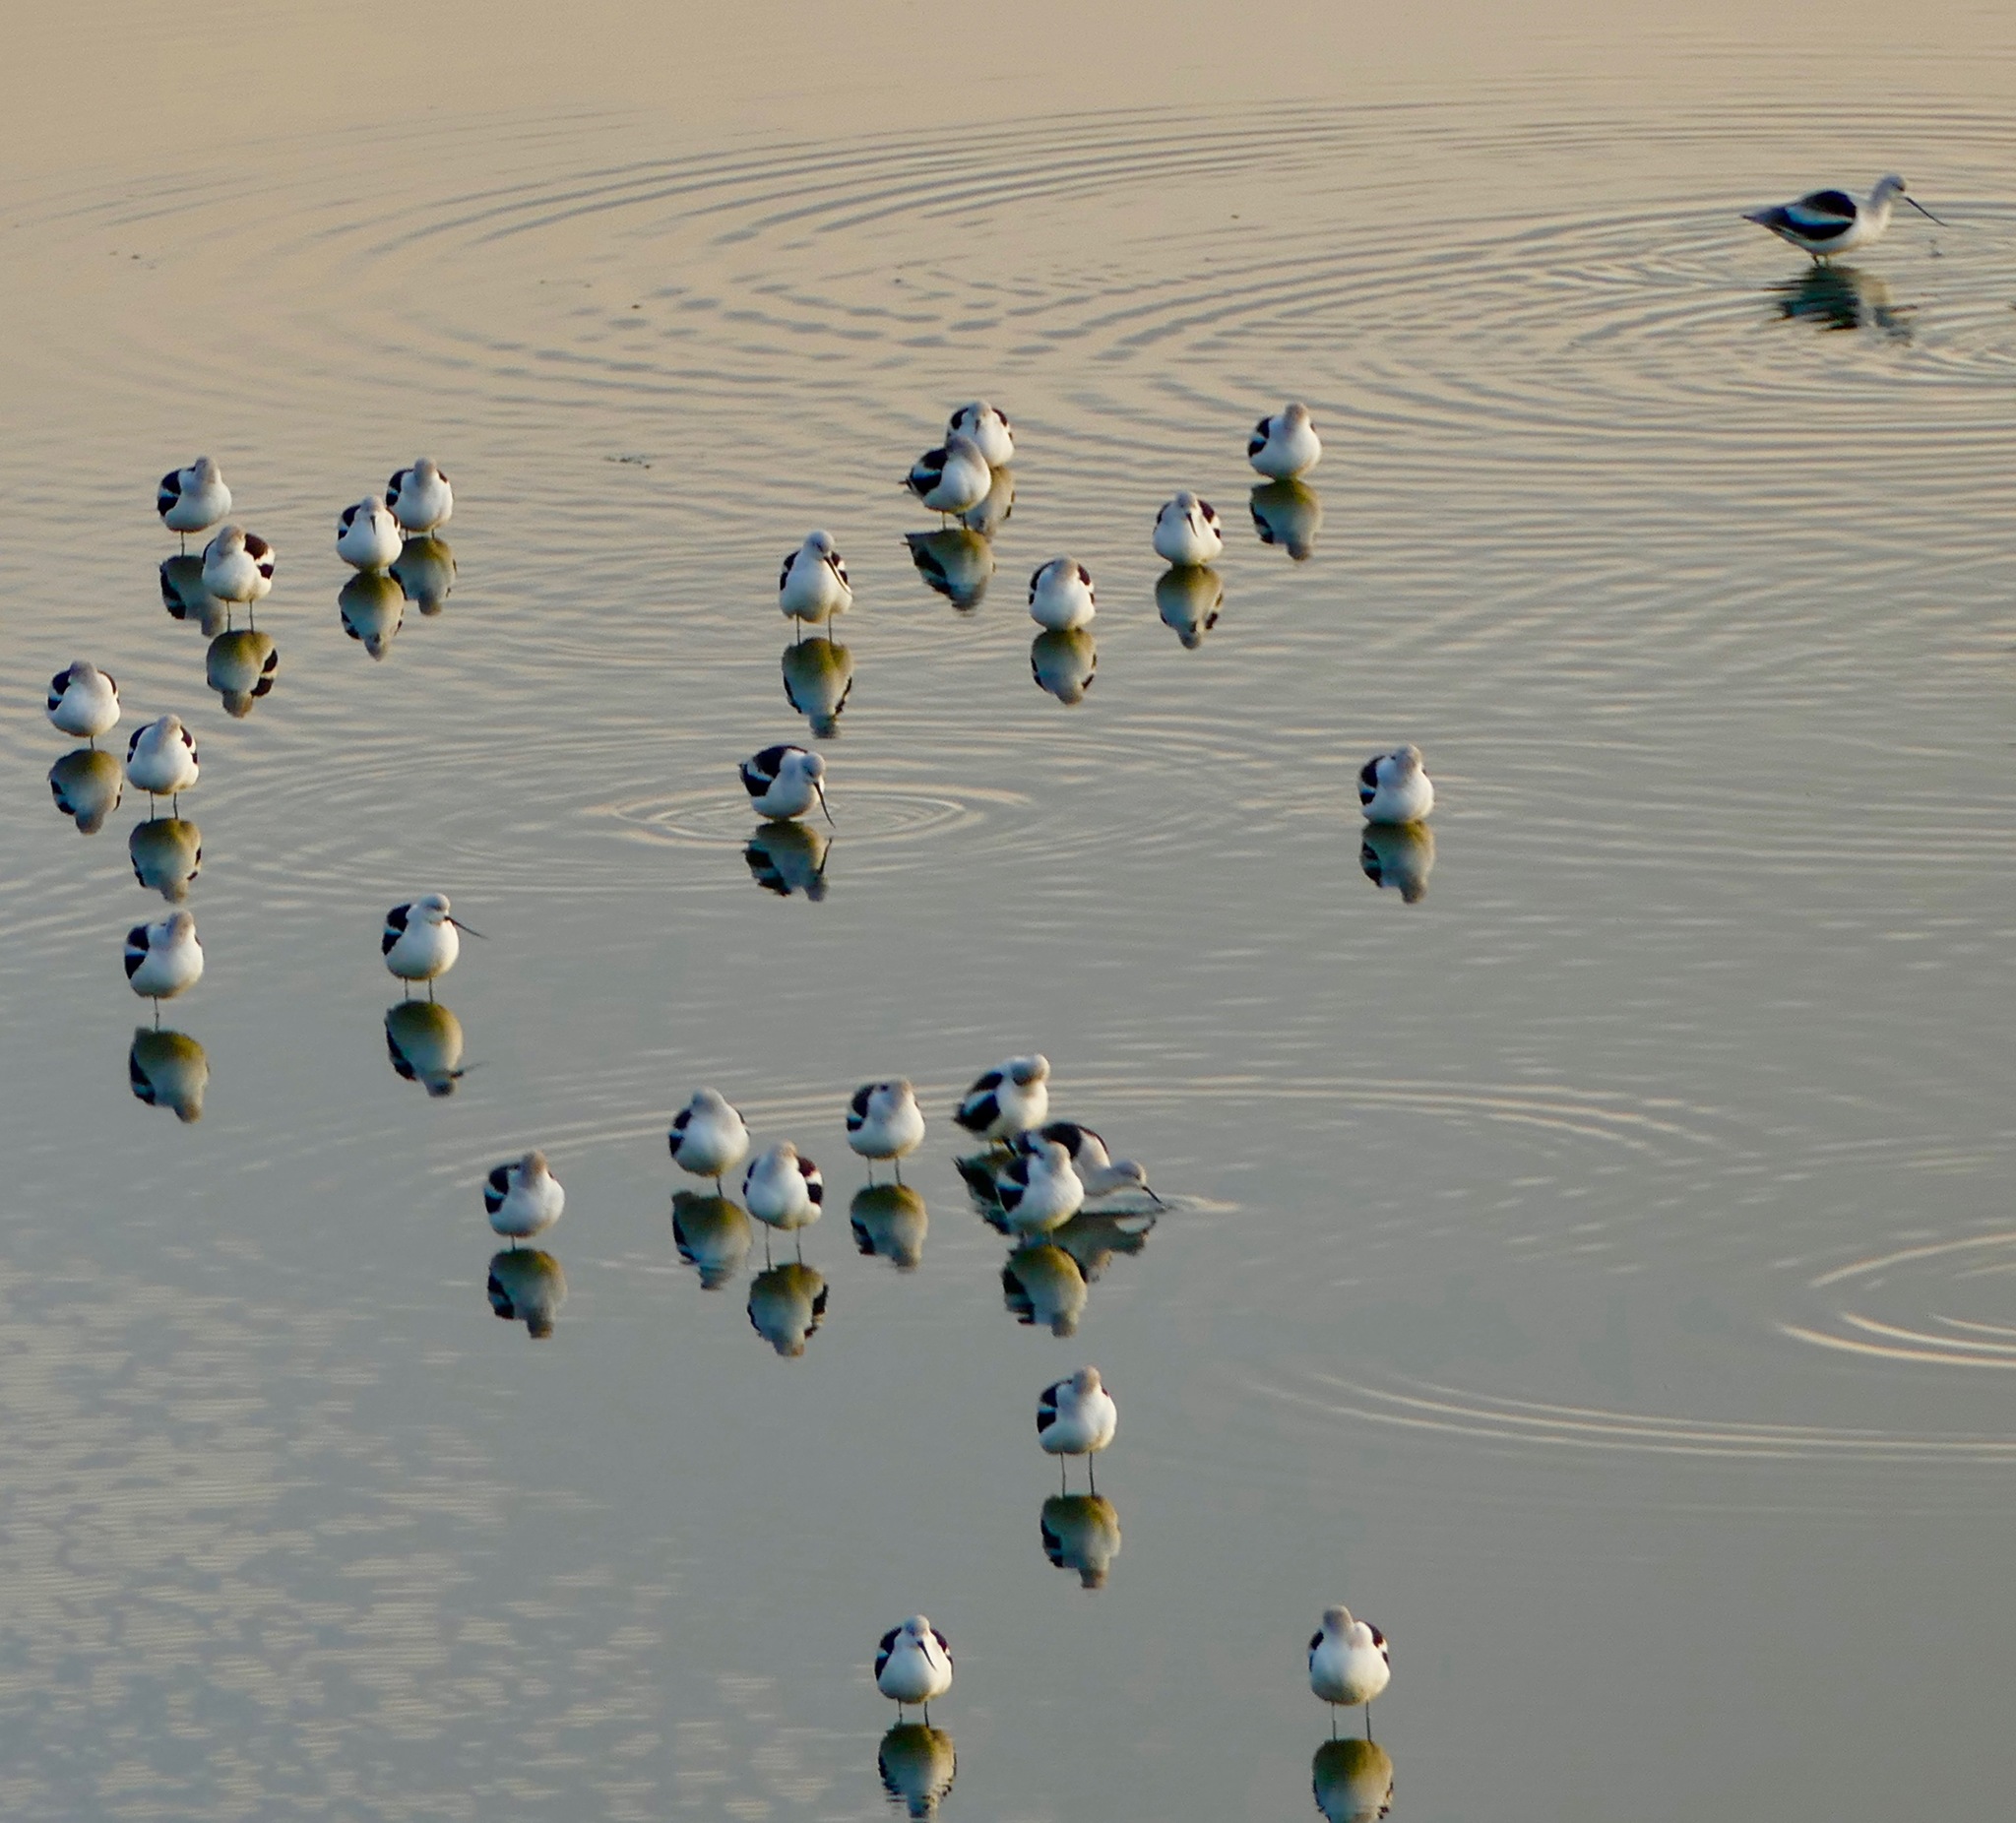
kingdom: Animalia
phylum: Chordata
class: Aves
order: Charadriiformes
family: Recurvirostridae
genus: Recurvirostra
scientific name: Recurvirostra americana
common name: American avocet
